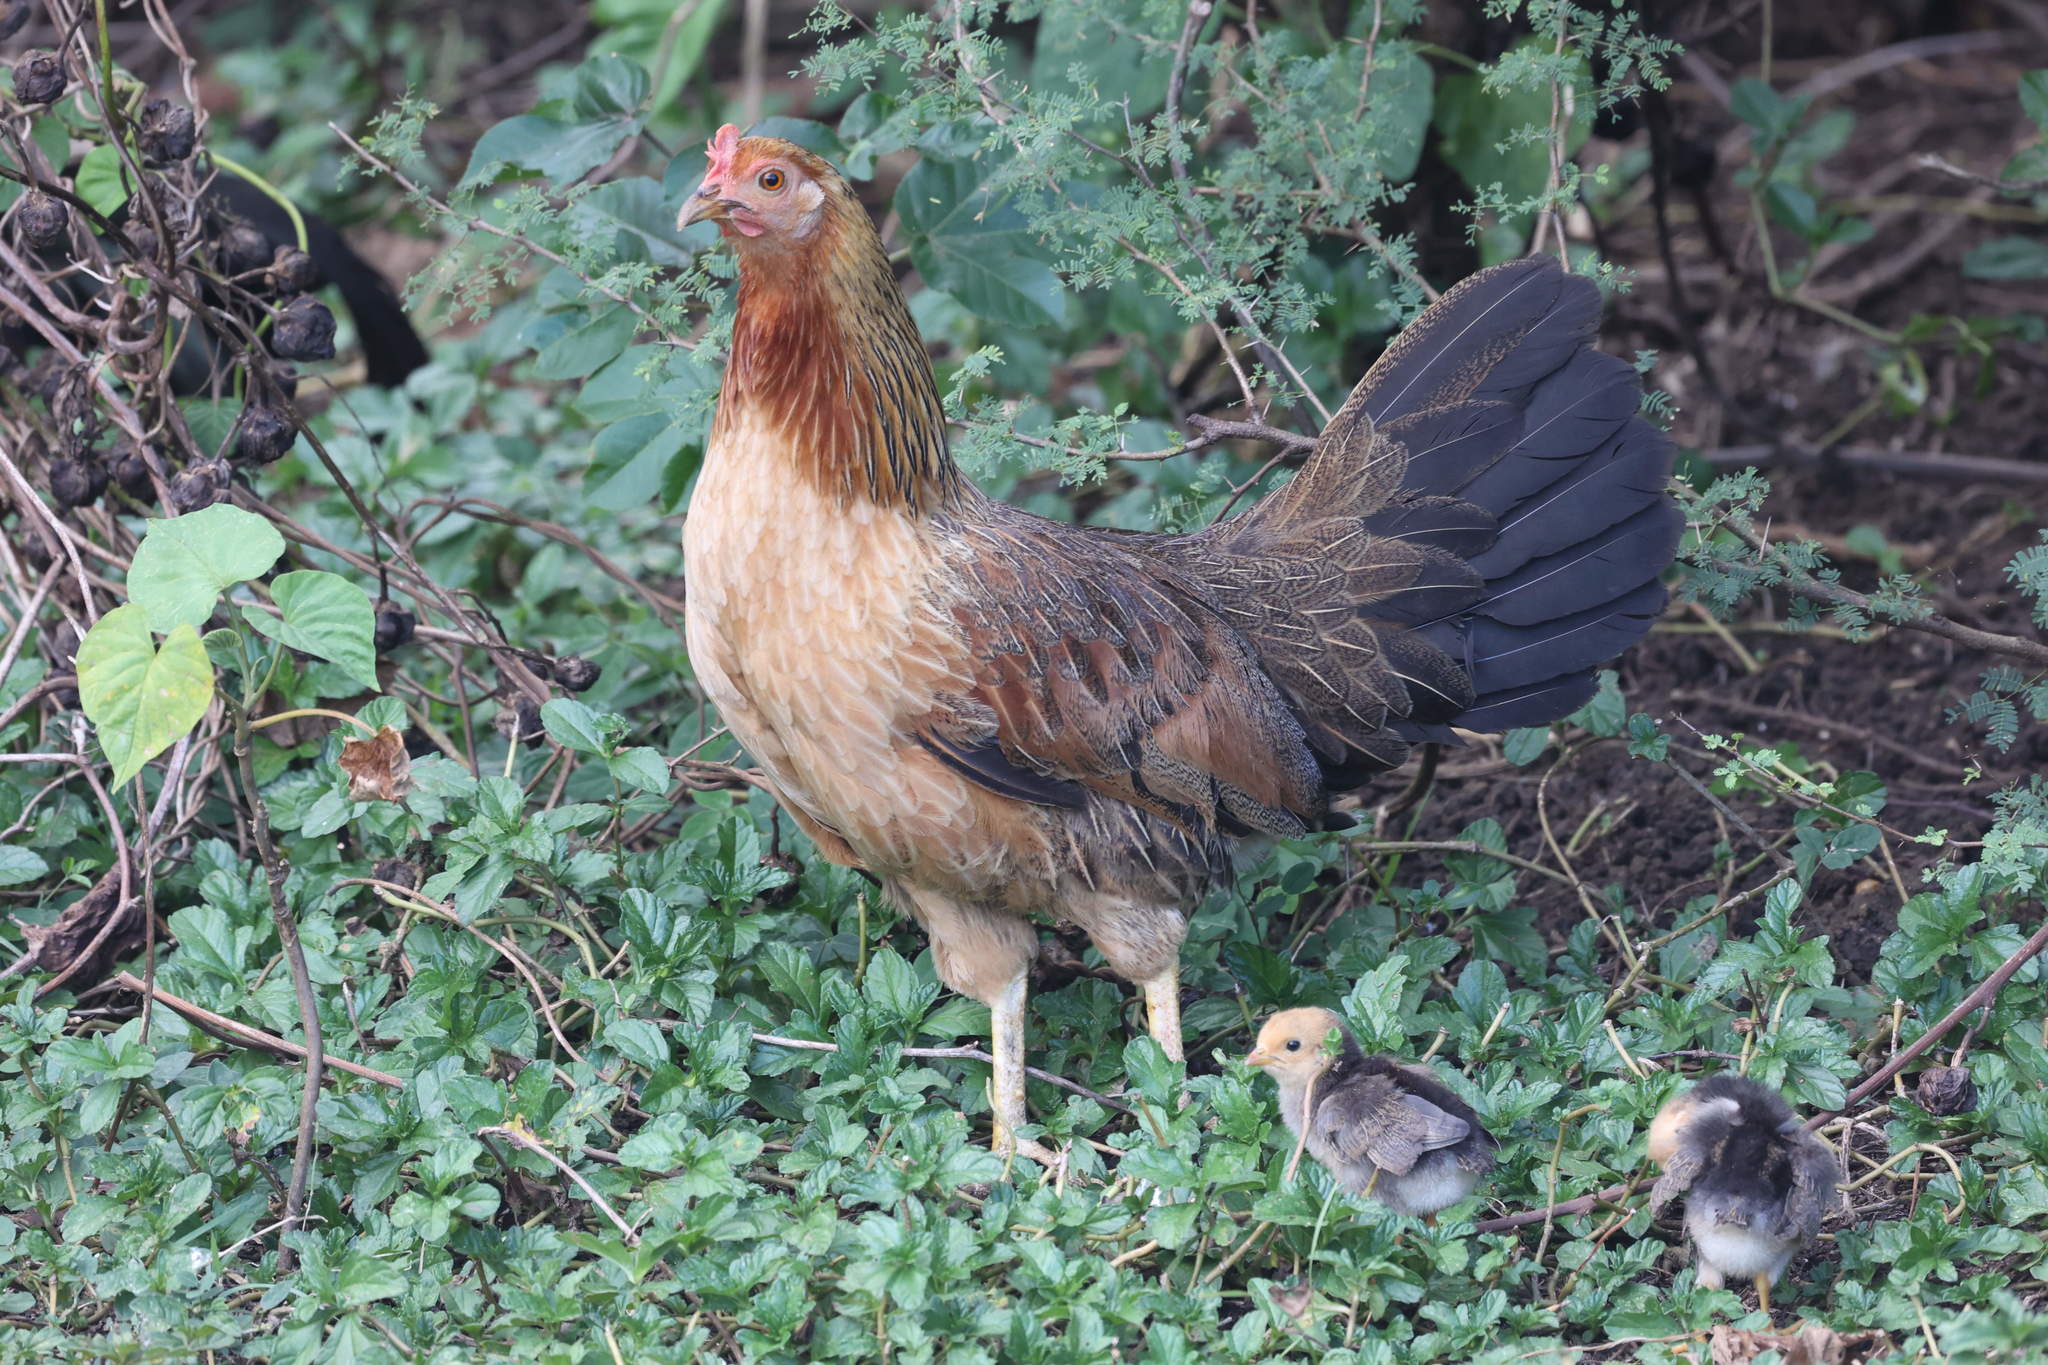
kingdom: Animalia
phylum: Chordata
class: Aves
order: Galliformes
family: Phasianidae
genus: Gallus
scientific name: Gallus gallus
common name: Red junglefowl
